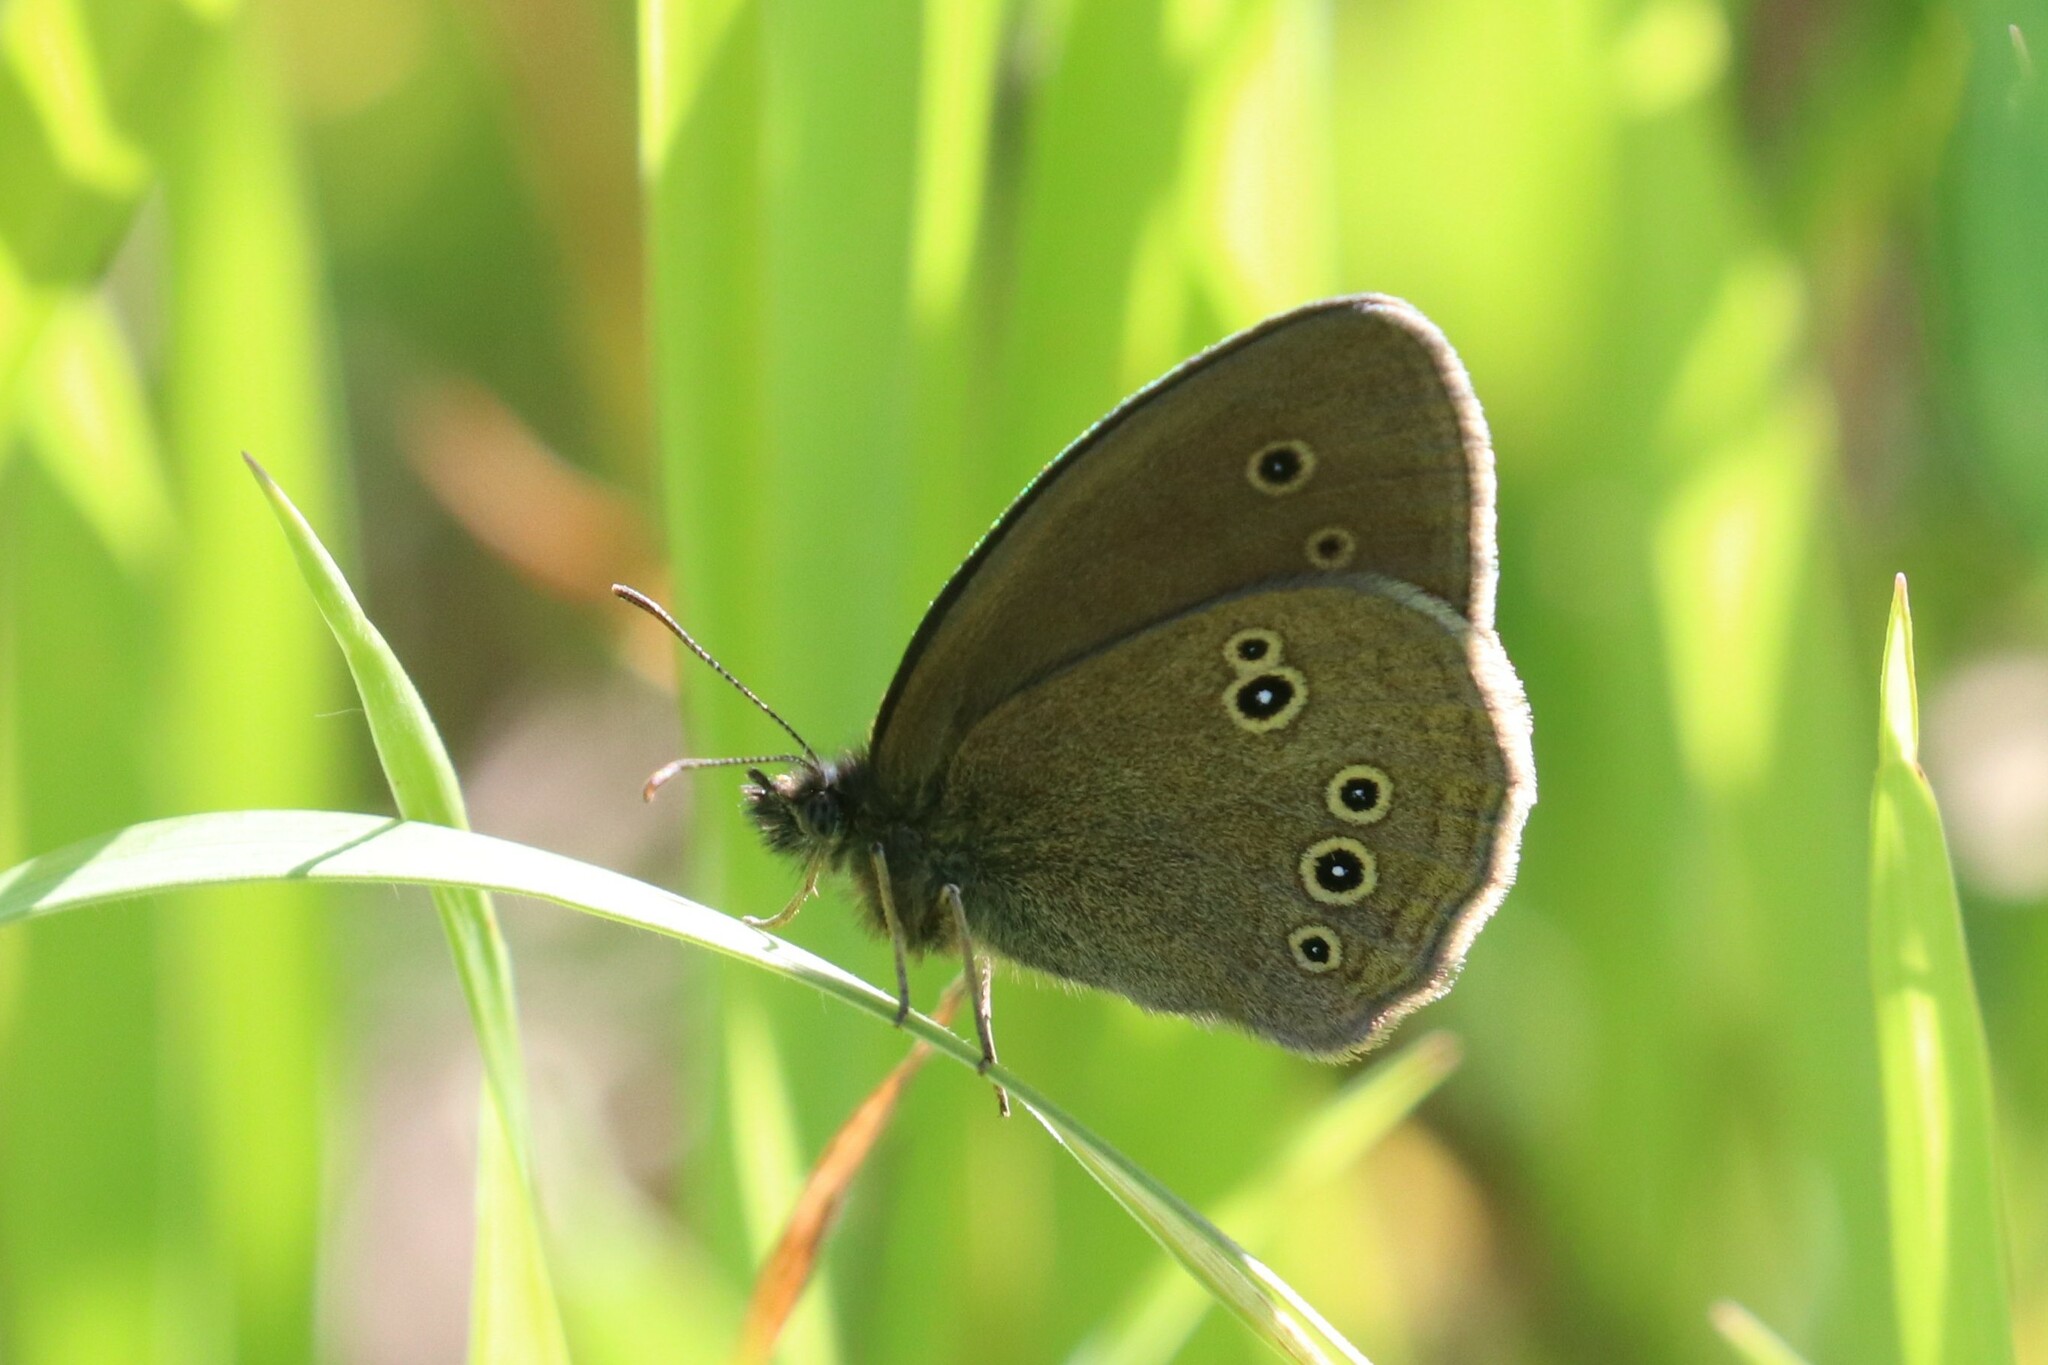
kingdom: Animalia
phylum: Arthropoda
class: Insecta
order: Lepidoptera
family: Nymphalidae
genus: Aphantopus
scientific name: Aphantopus hyperantus
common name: Ringlet
